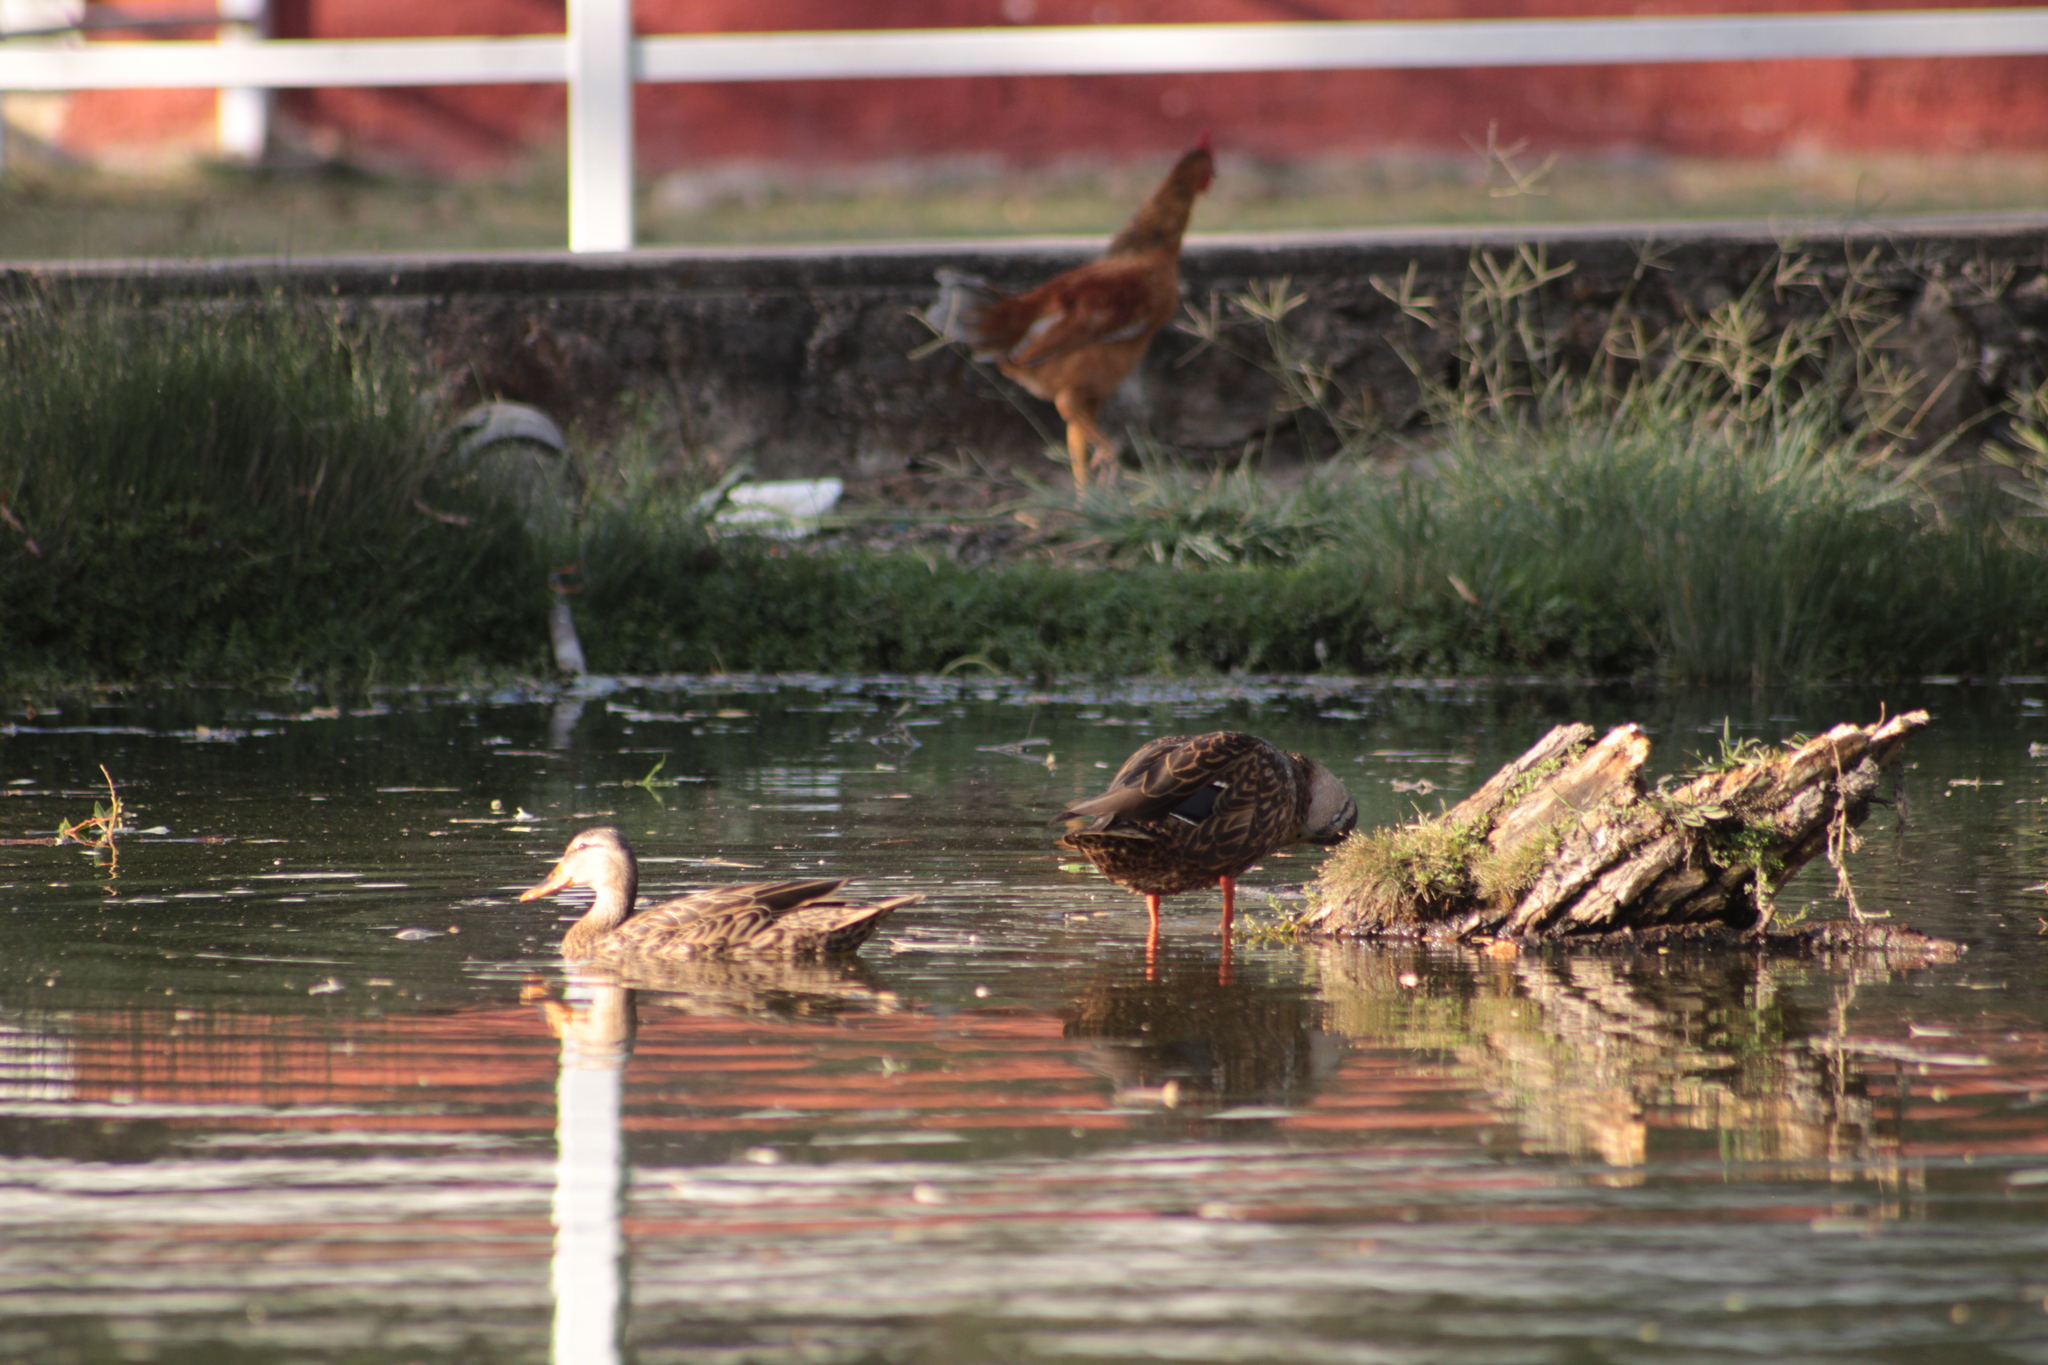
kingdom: Animalia
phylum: Chordata
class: Aves
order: Anseriformes
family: Anatidae
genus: Anas
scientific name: Anas diazi
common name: Mexican duck
